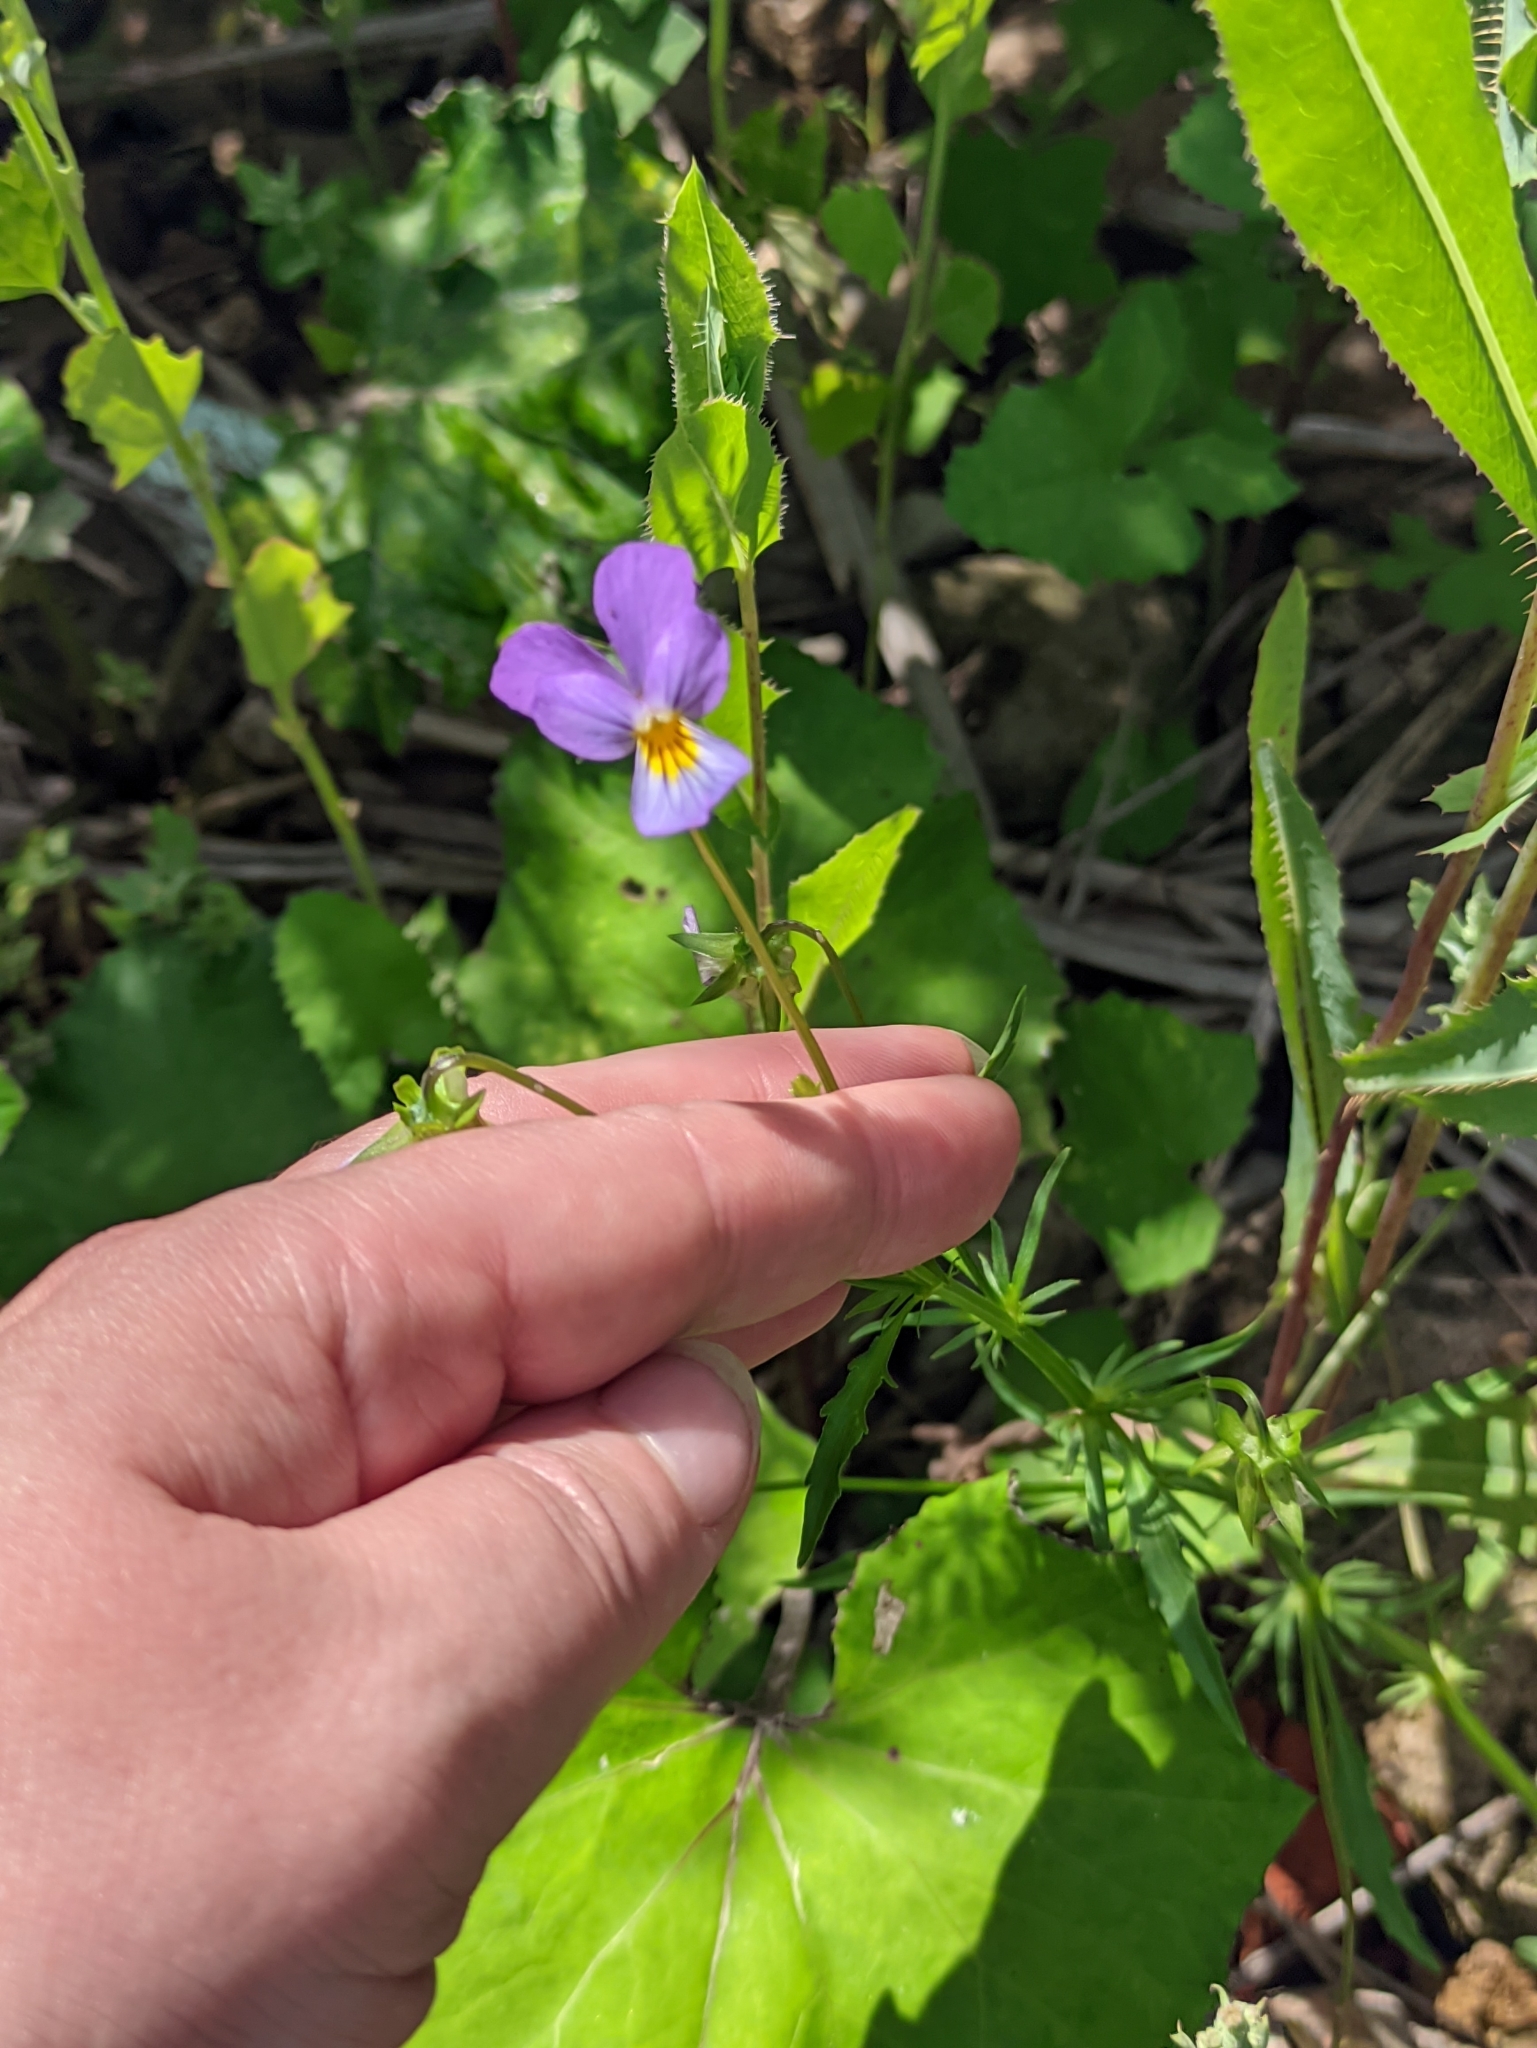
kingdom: Plantae
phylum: Tracheophyta
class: Magnoliopsida
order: Malpighiales
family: Violaceae
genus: Viola
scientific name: Viola tricolor
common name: Pansy
